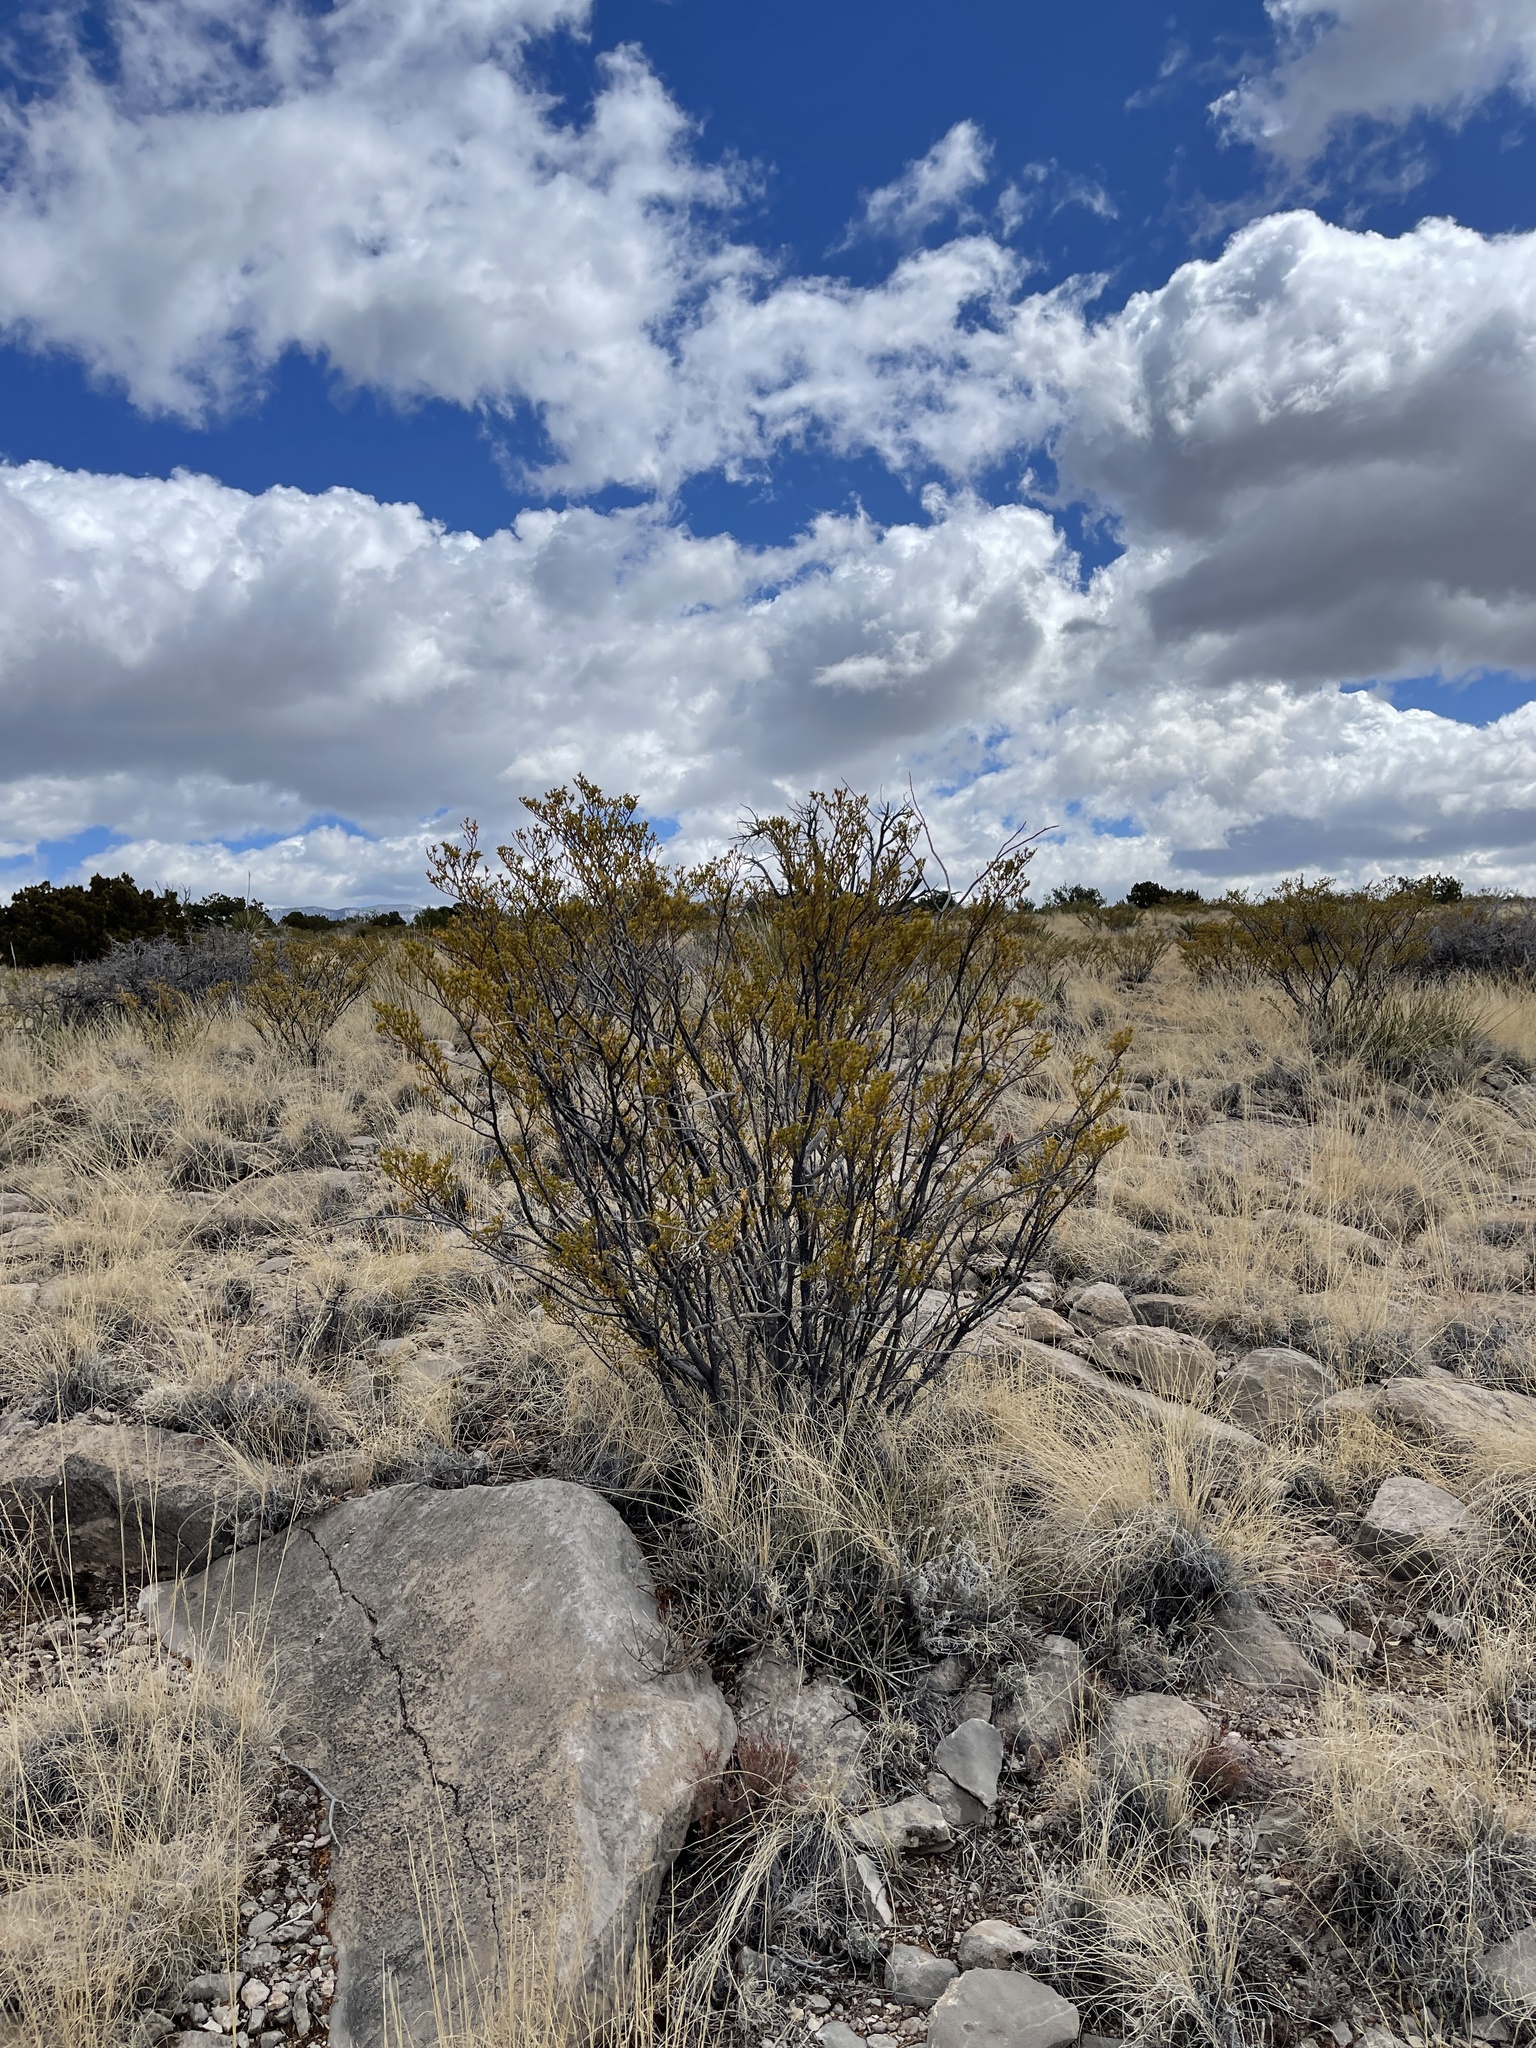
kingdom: Plantae
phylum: Tracheophyta
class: Magnoliopsida
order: Zygophyllales
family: Zygophyllaceae
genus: Larrea
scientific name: Larrea tridentata
